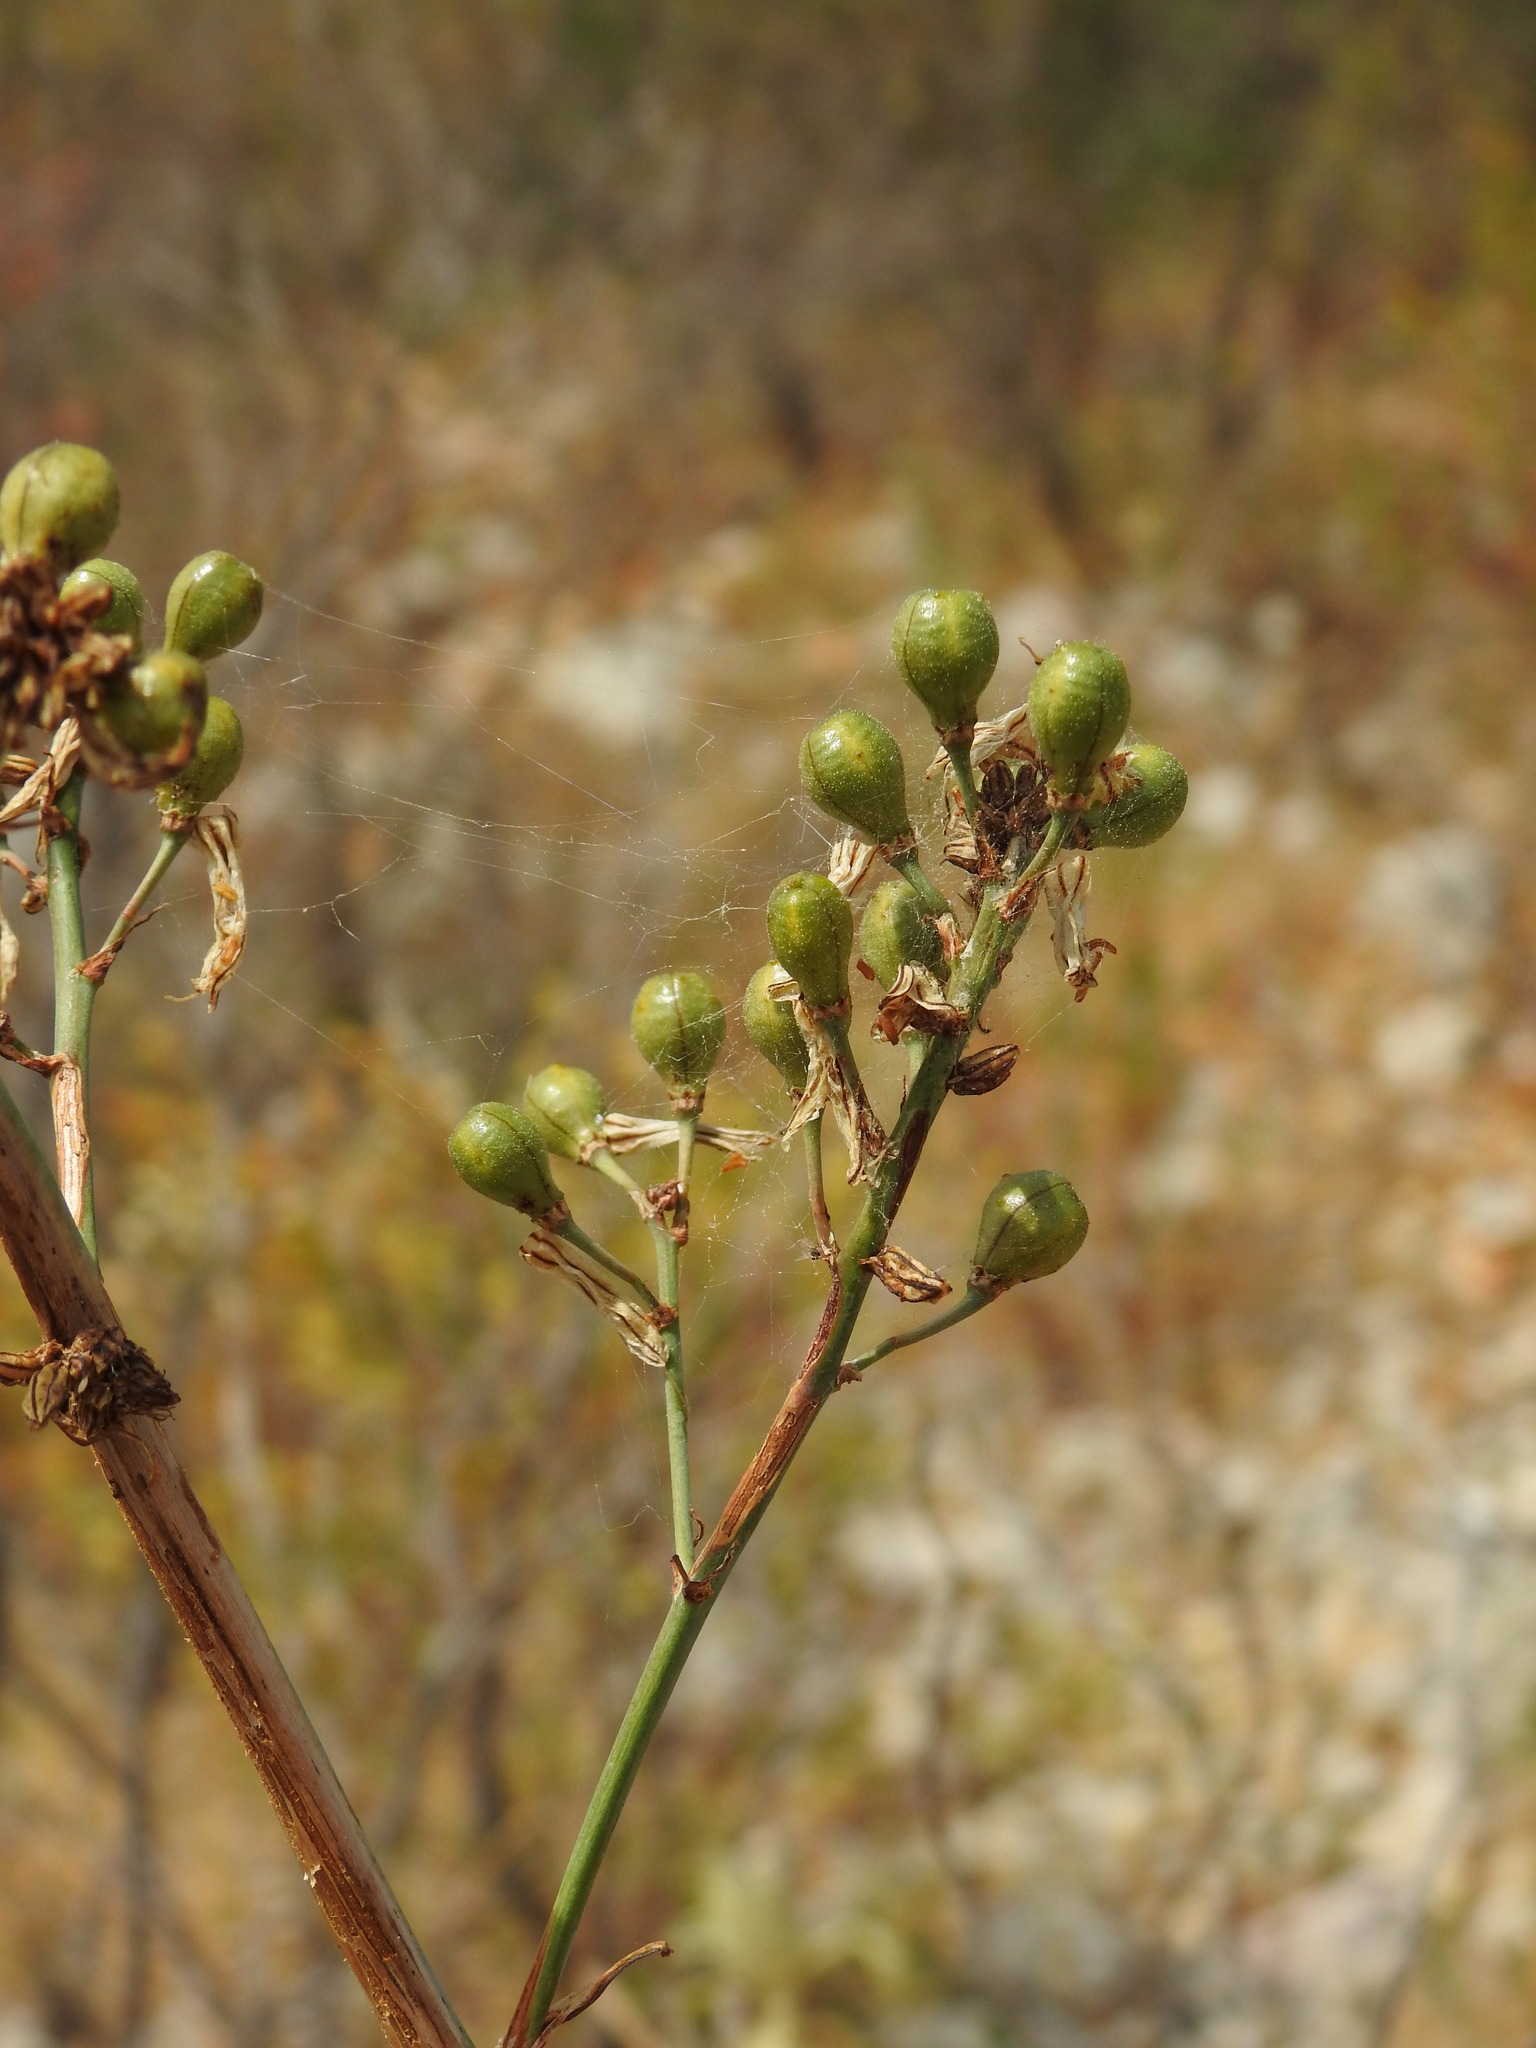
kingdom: Plantae
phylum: Tracheophyta
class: Liliopsida
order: Asparagales
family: Asphodelaceae
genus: Asphodelus
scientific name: Asphodelus serotinus
